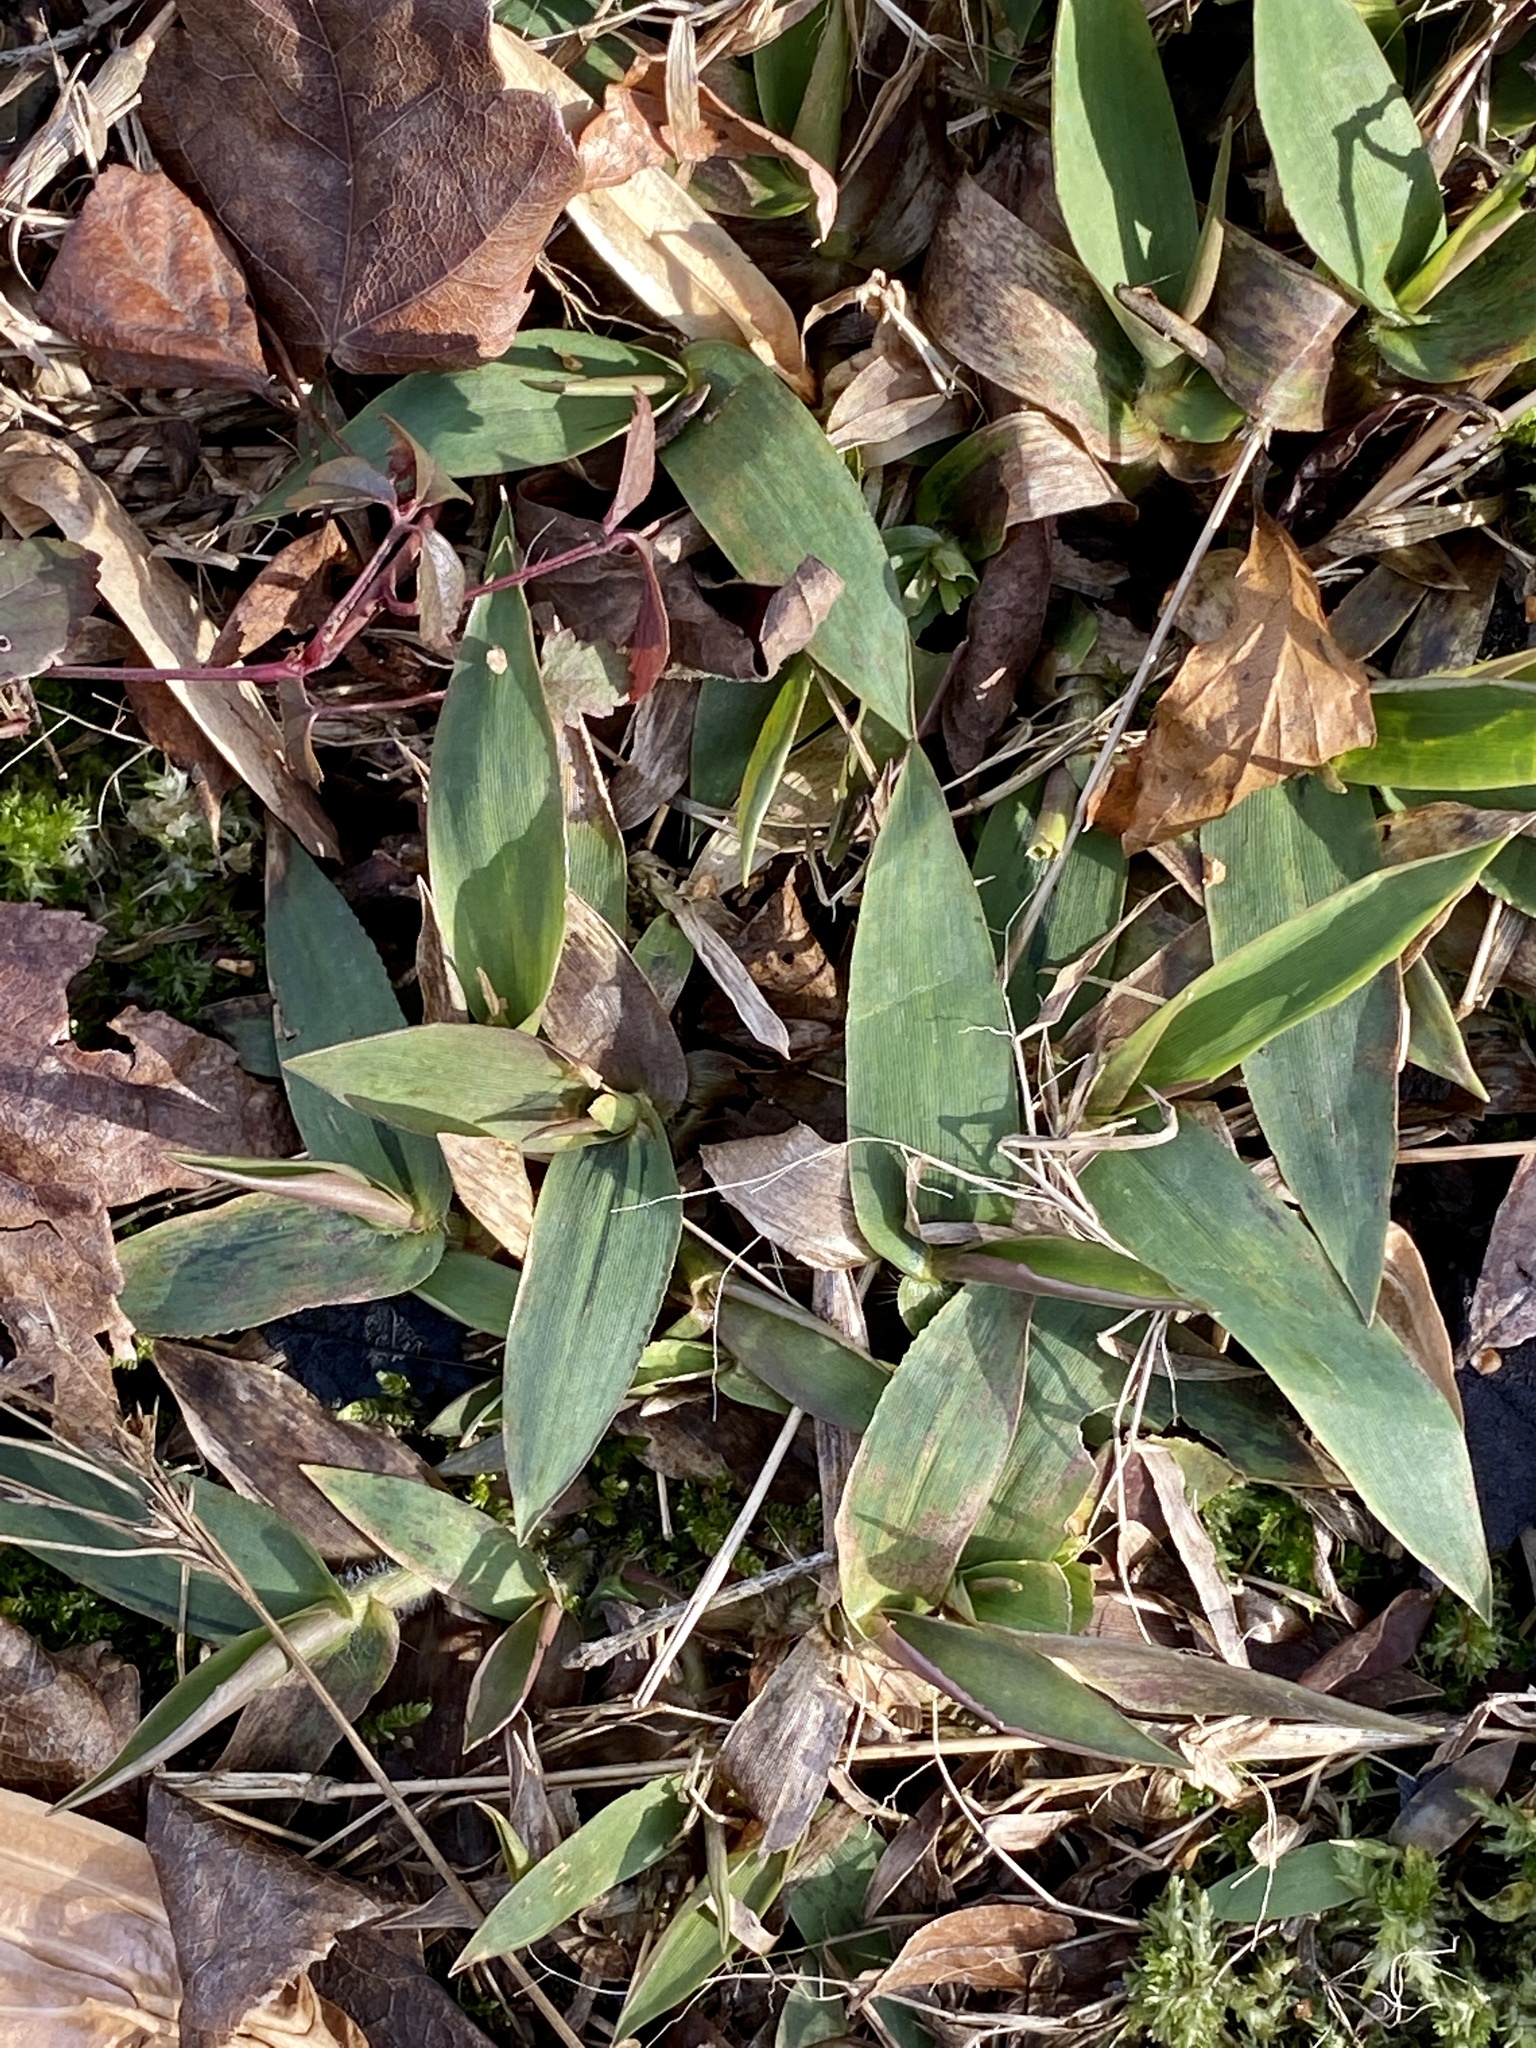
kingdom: Plantae
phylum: Tracheophyta
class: Liliopsida
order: Poales
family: Poaceae
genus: Dichanthelium
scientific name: Dichanthelium clandestinum
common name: Deer-tongue grass
